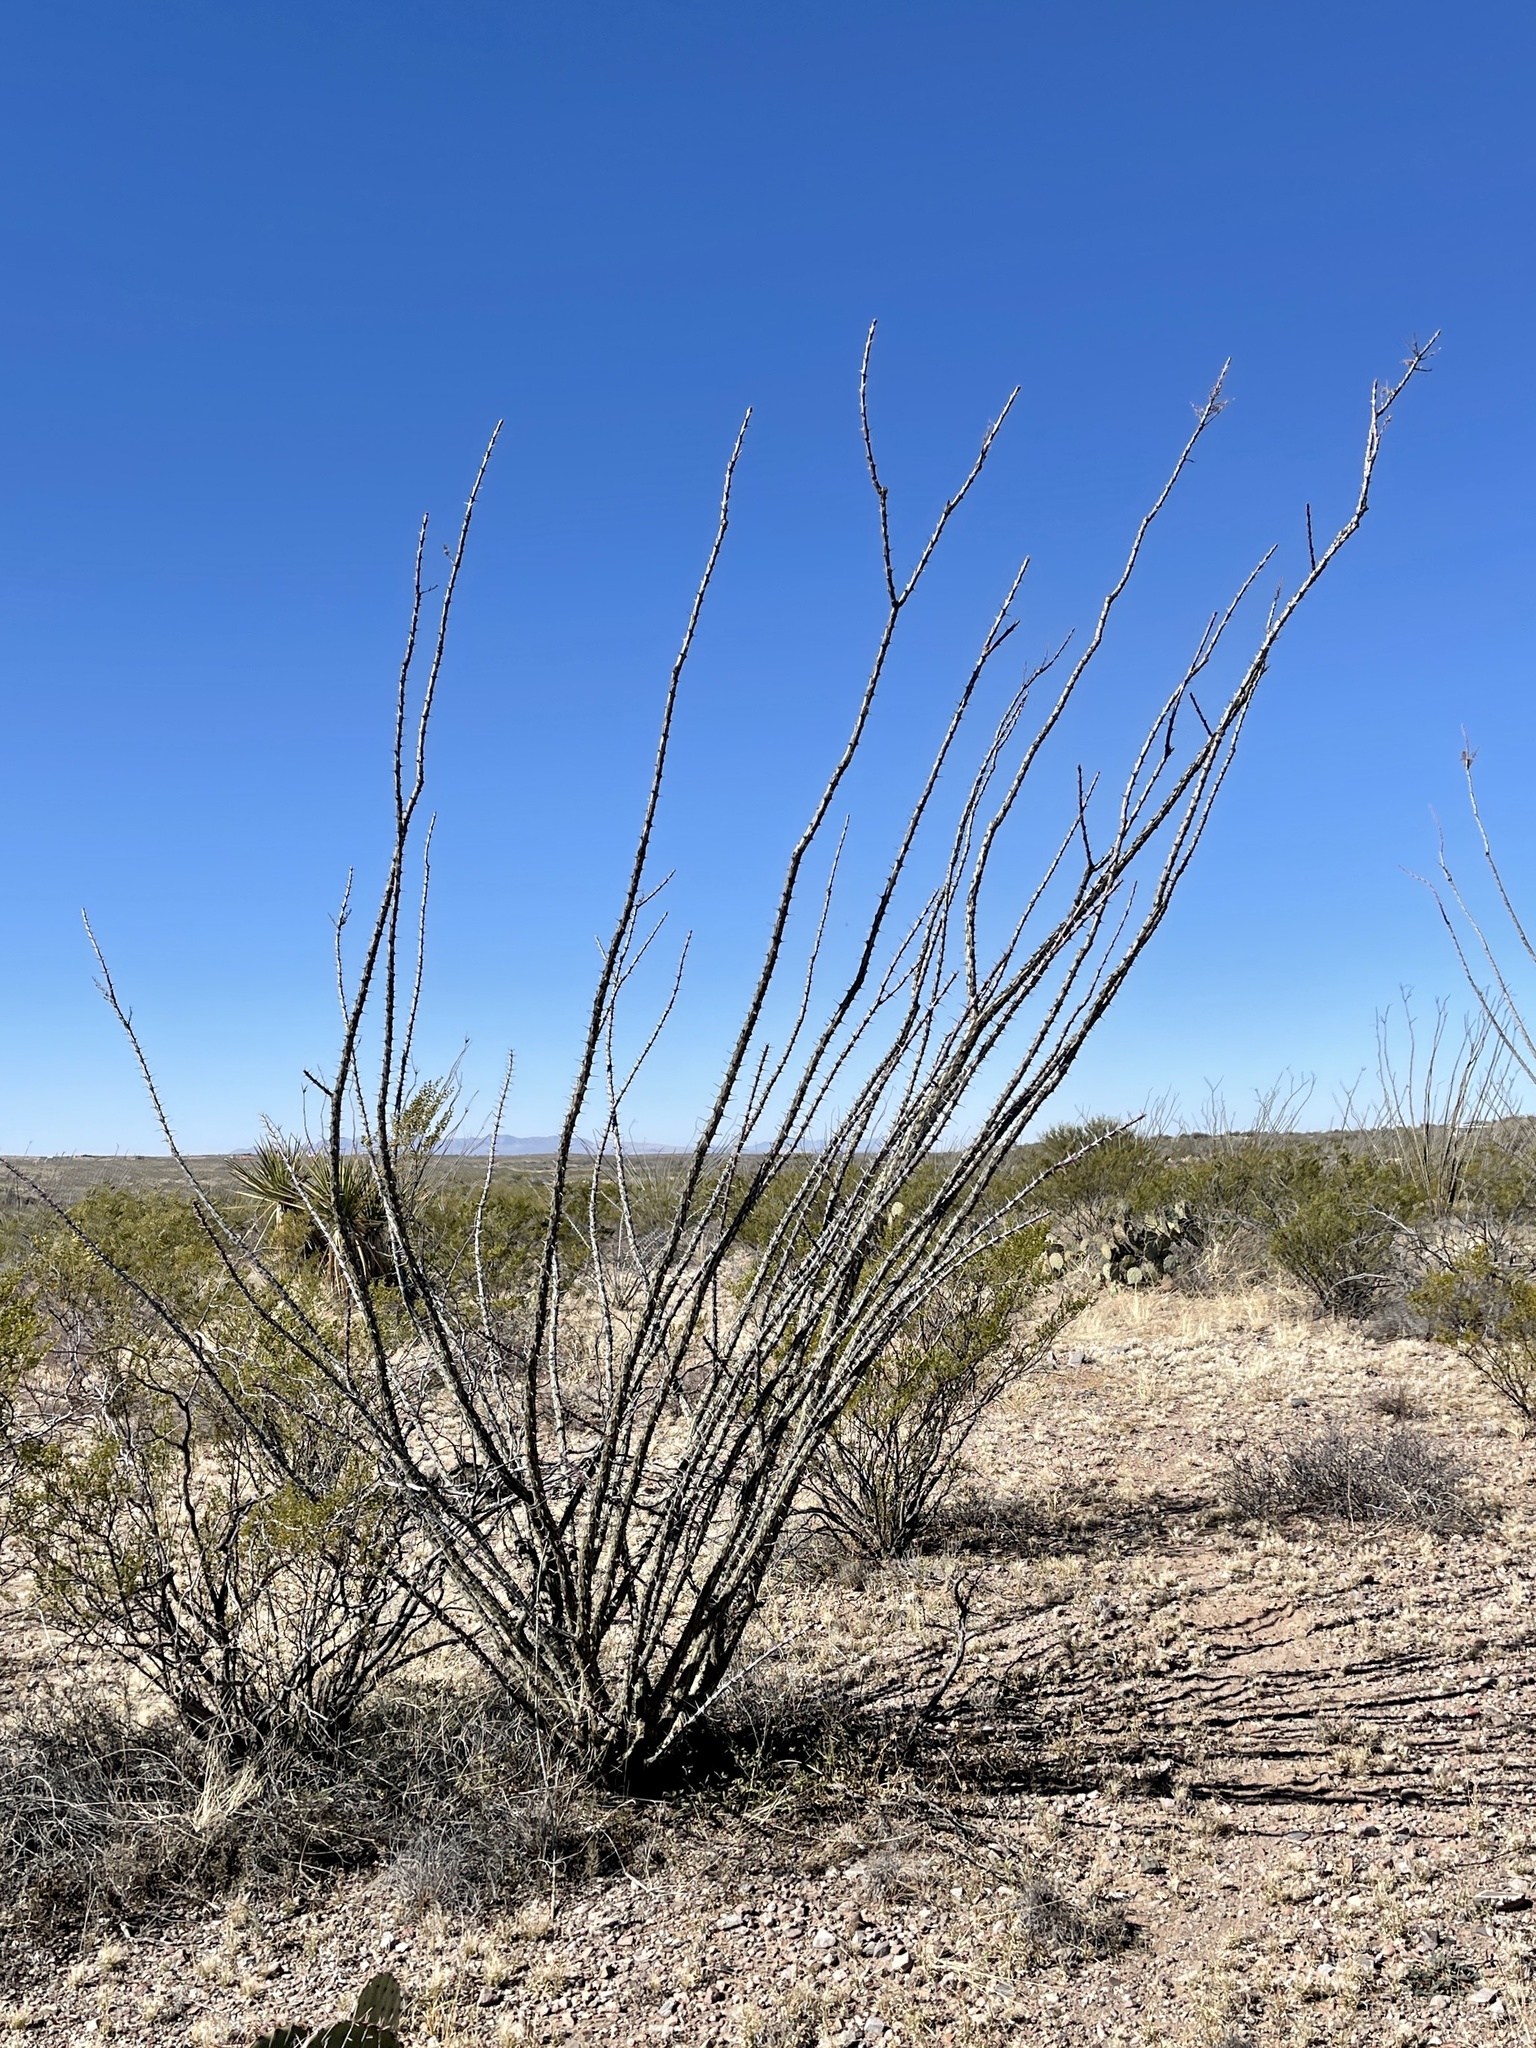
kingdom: Plantae
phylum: Tracheophyta
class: Magnoliopsida
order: Ericales
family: Fouquieriaceae
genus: Fouquieria
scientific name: Fouquieria splendens
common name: Vine-cactus
